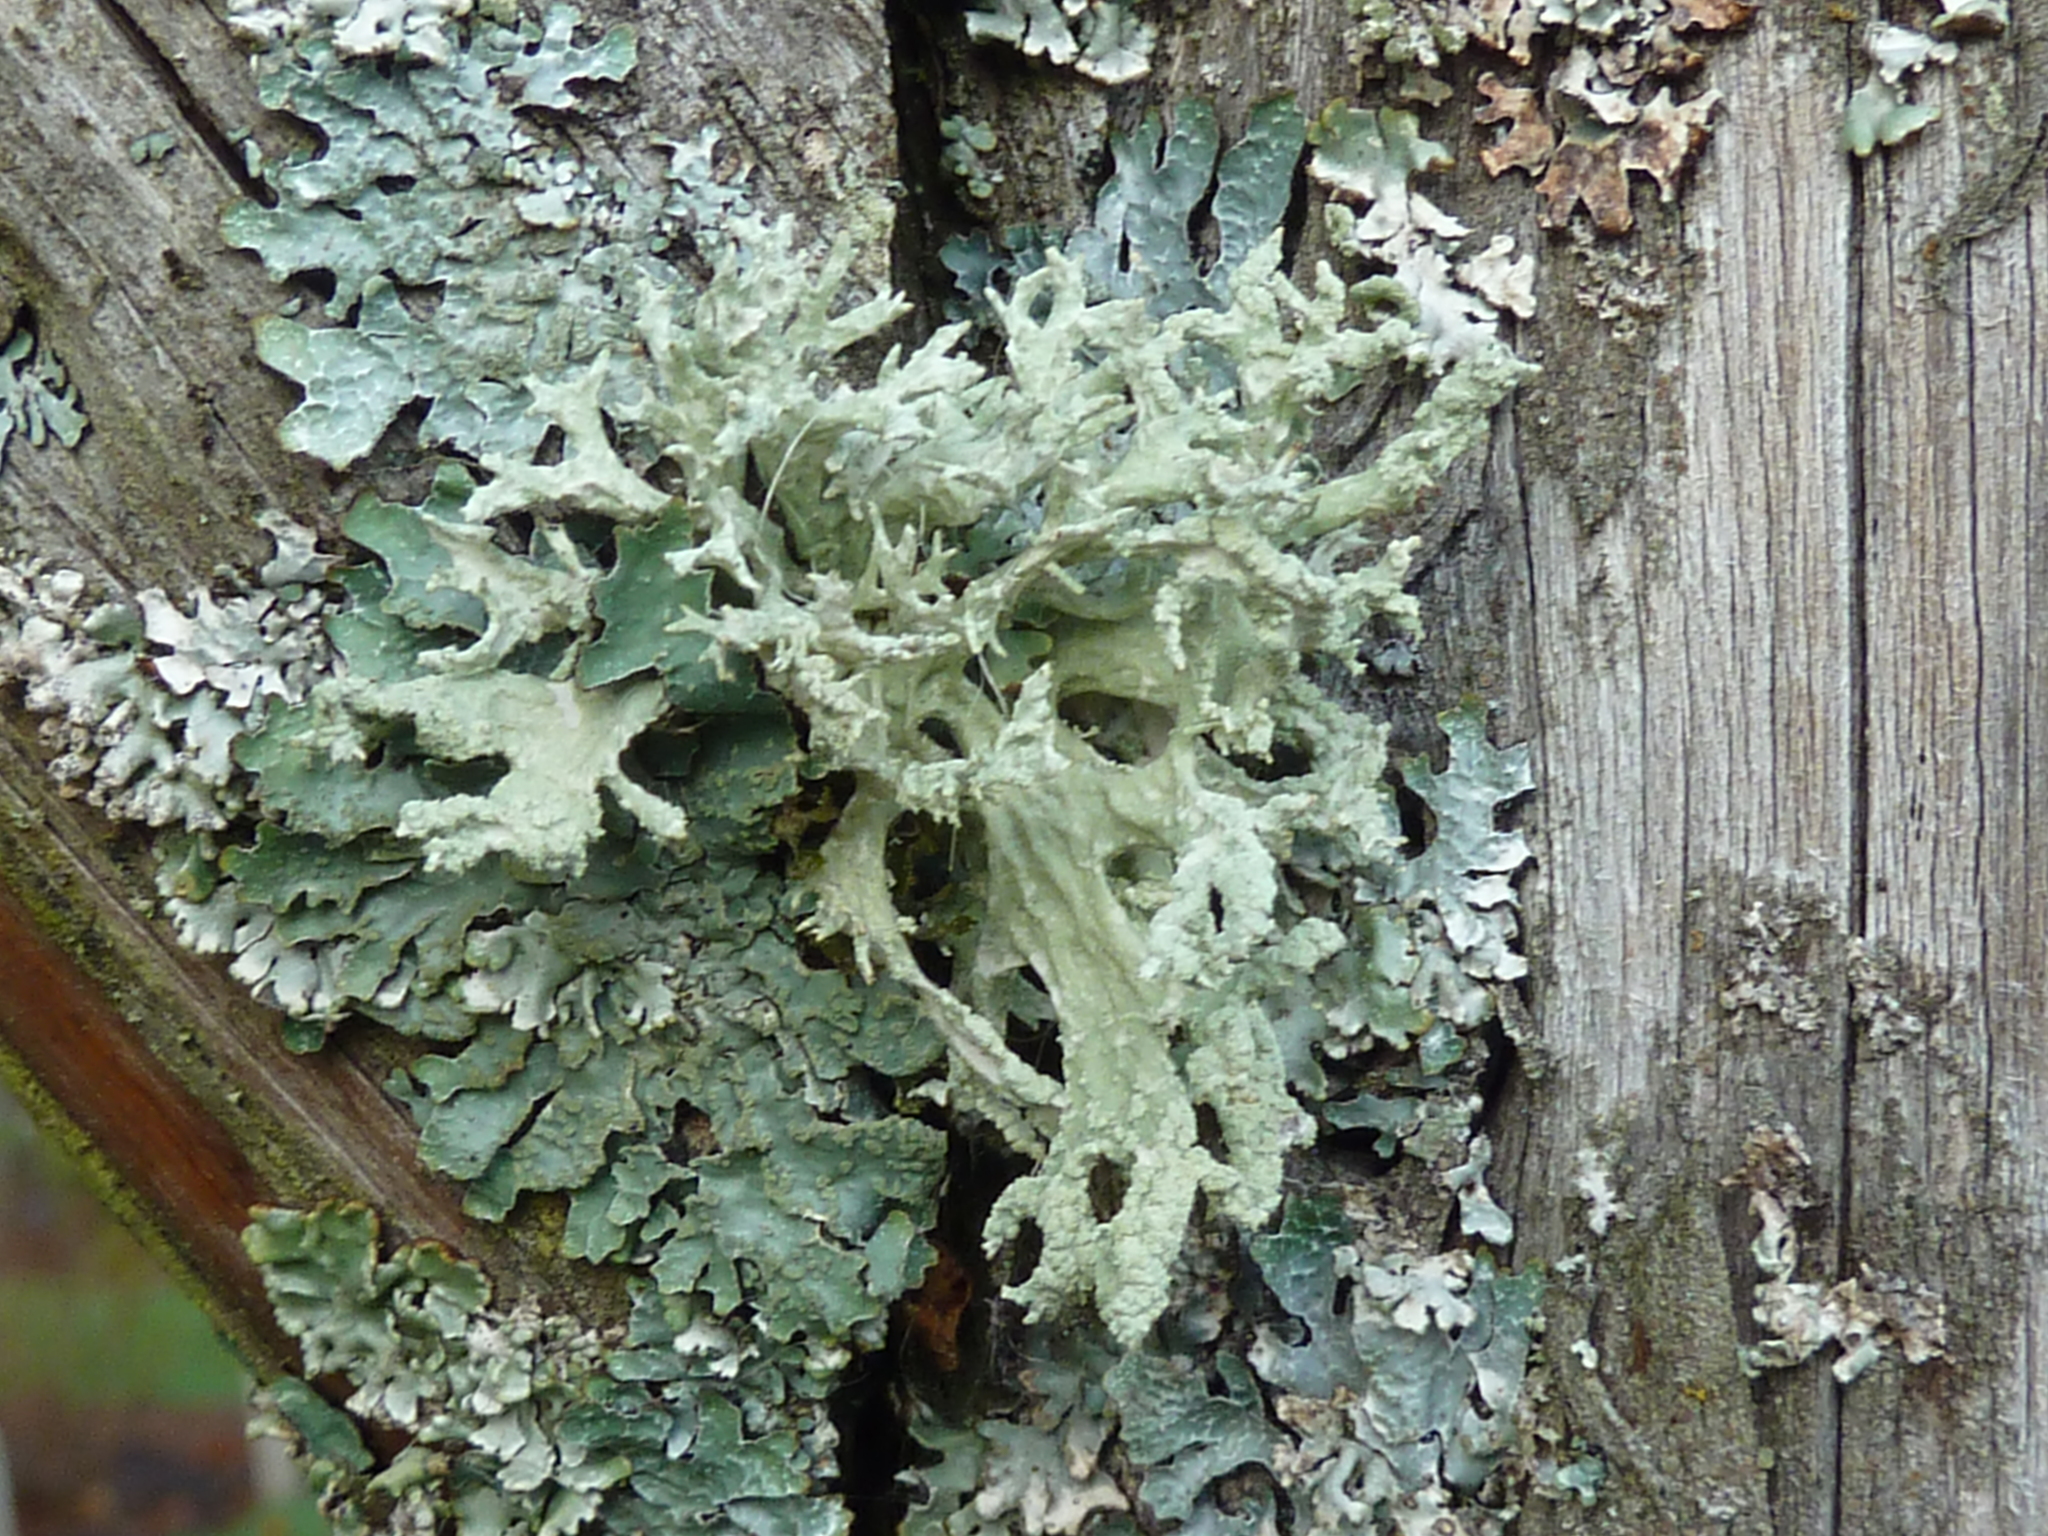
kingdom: Fungi
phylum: Ascomycota
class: Lecanoromycetes
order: Lecanorales
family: Parmeliaceae
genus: Evernia
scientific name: Evernia prunastri
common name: Oak moss
